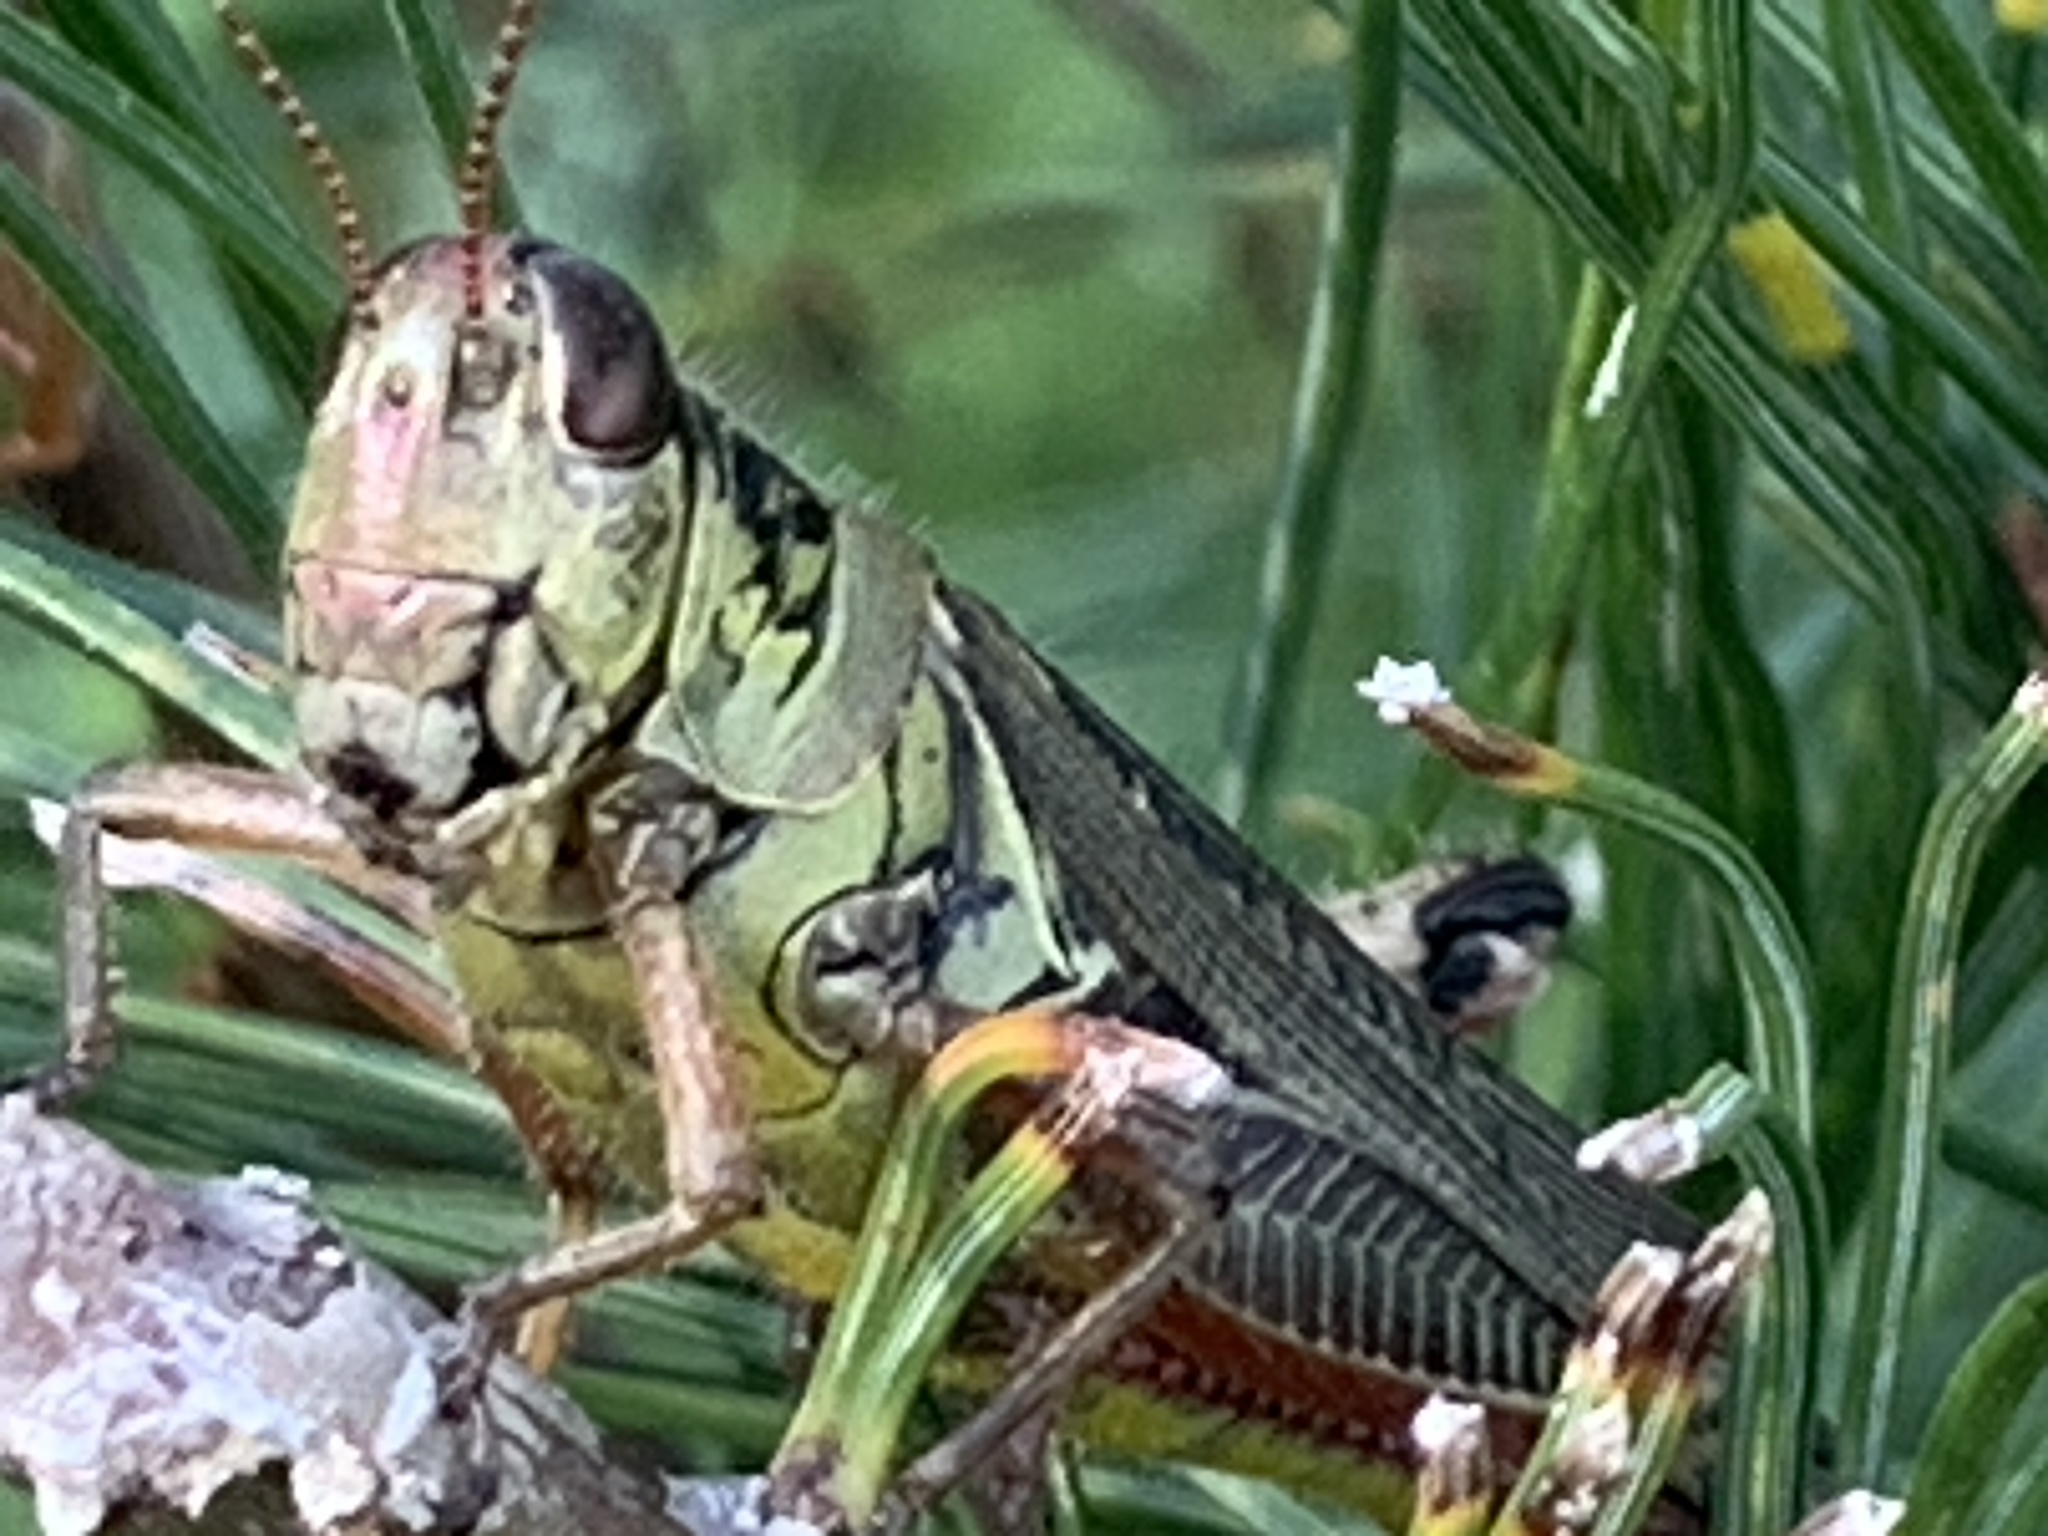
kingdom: Animalia
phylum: Arthropoda
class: Insecta
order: Orthoptera
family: Acrididae
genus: Melanoplus
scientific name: Melanoplus femurrubrum
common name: Red-legged grasshopper
